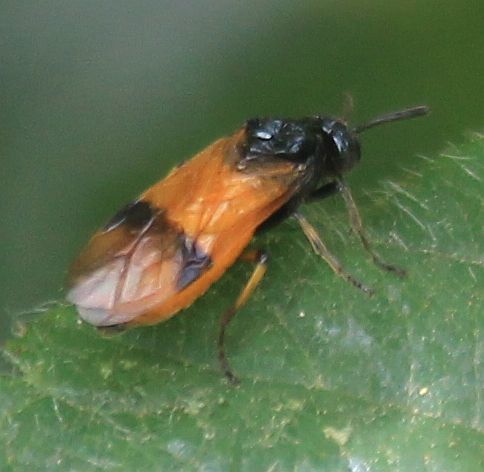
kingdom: Animalia
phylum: Arthropoda
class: Insecta
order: Hymenoptera
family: Argidae
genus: Arge
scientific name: Arge cyanocrocea
